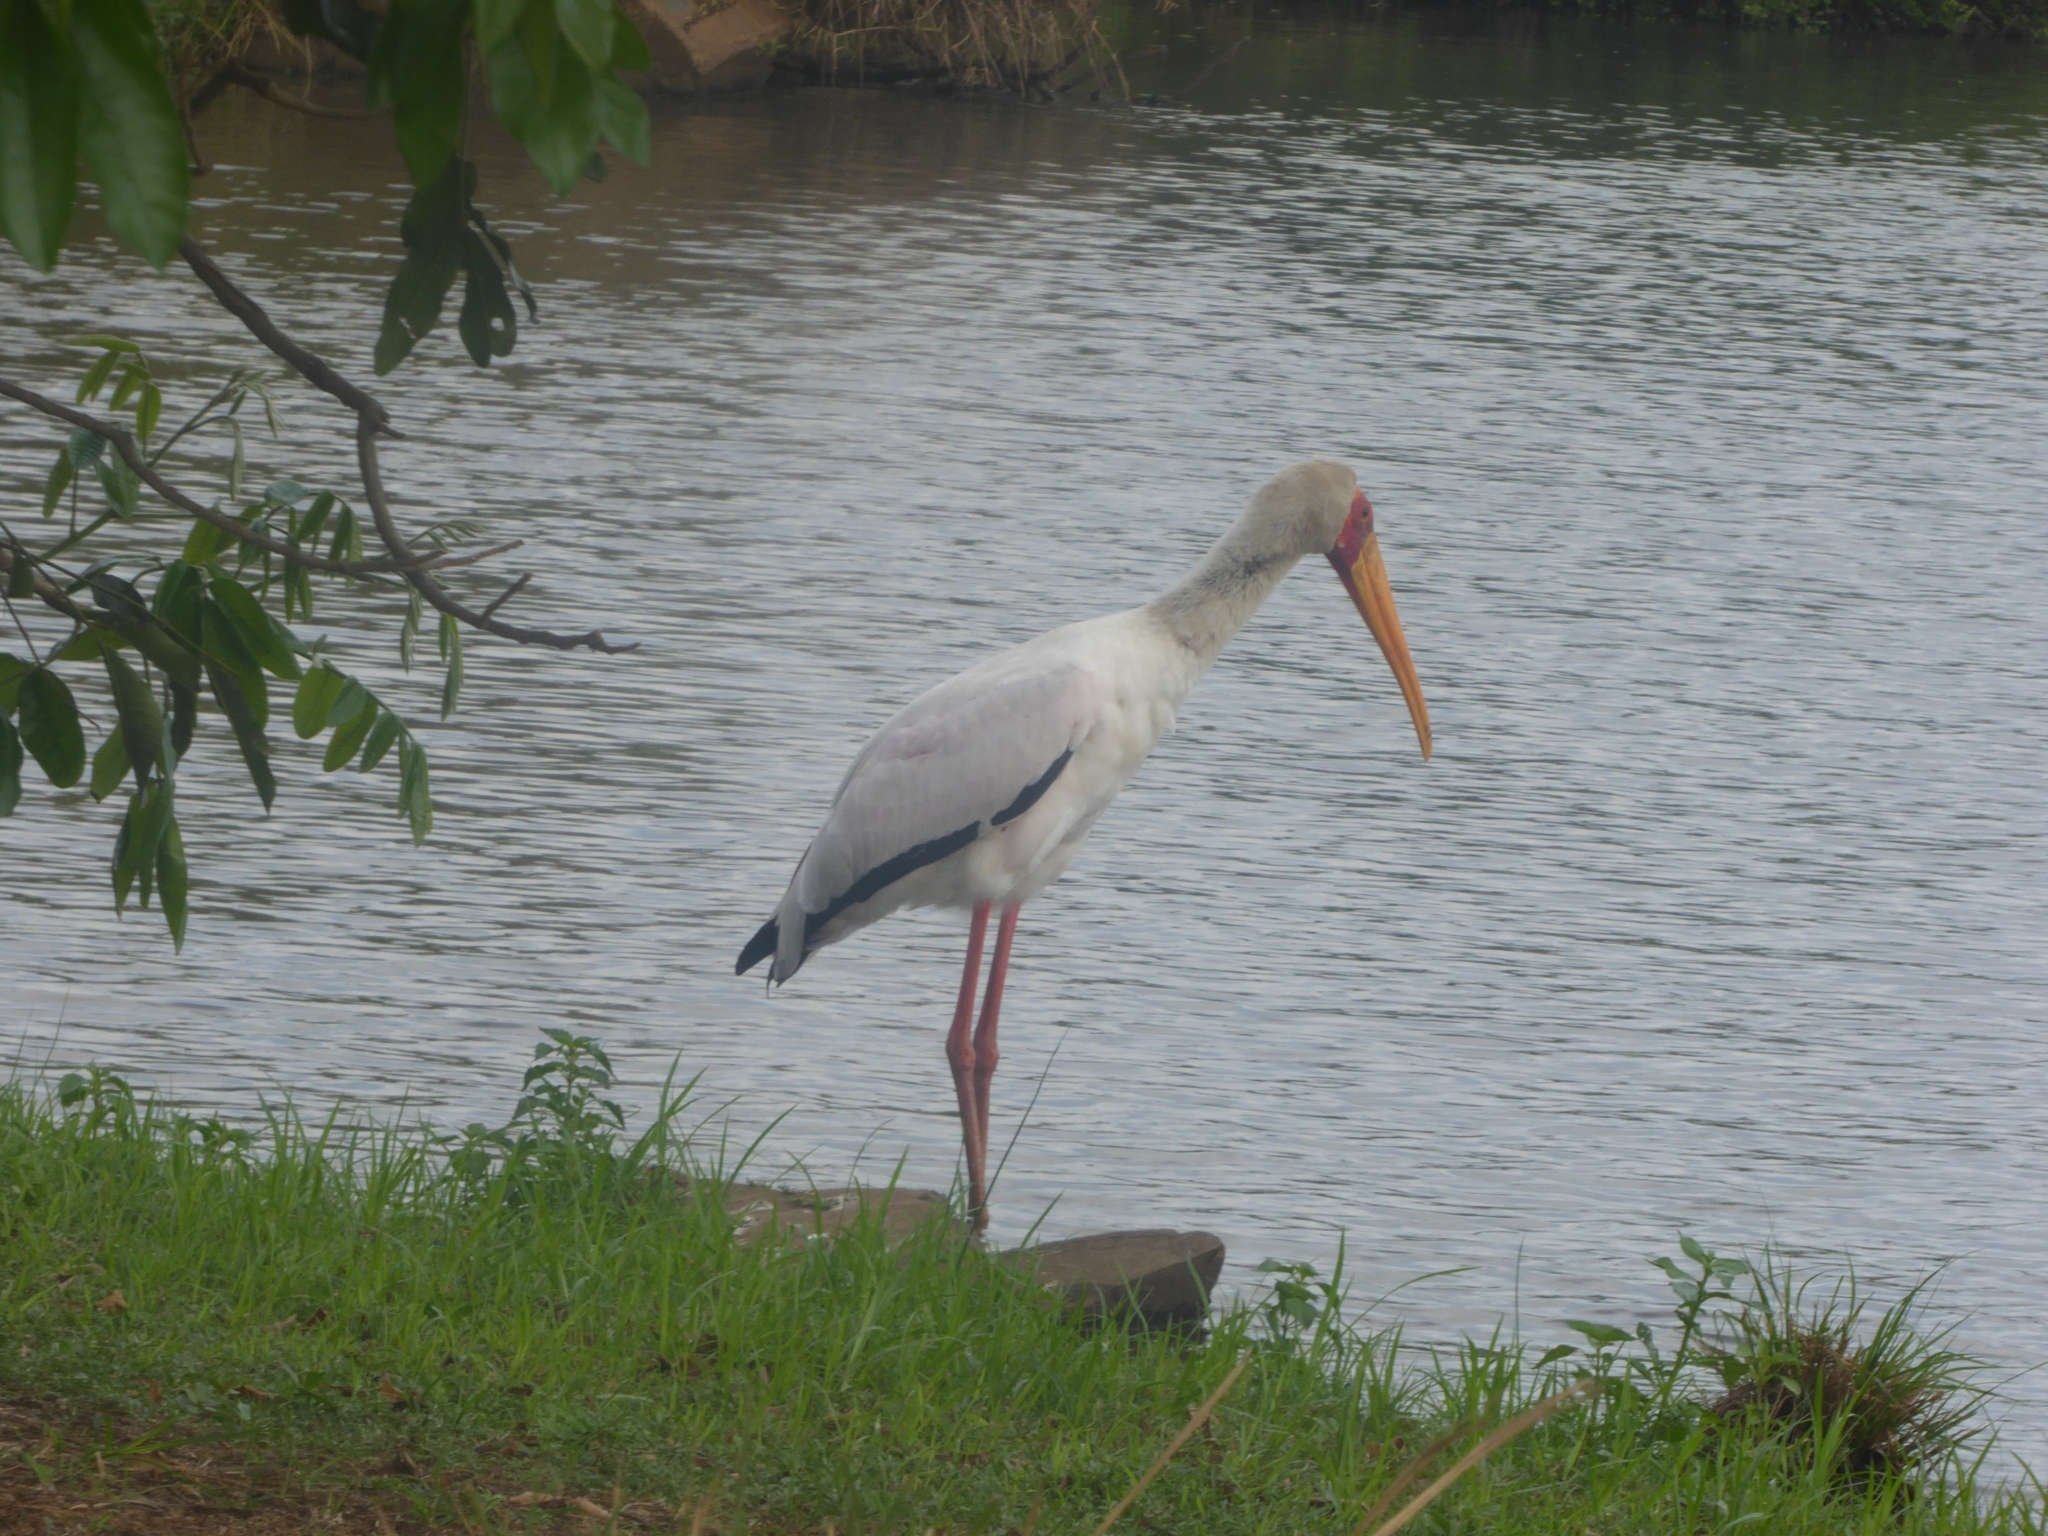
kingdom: Animalia
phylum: Chordata
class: Aves
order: Ciconiiformes
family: Ciconiidae
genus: Mycteria
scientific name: Mycteria ibis
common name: Yellow-billed stork
